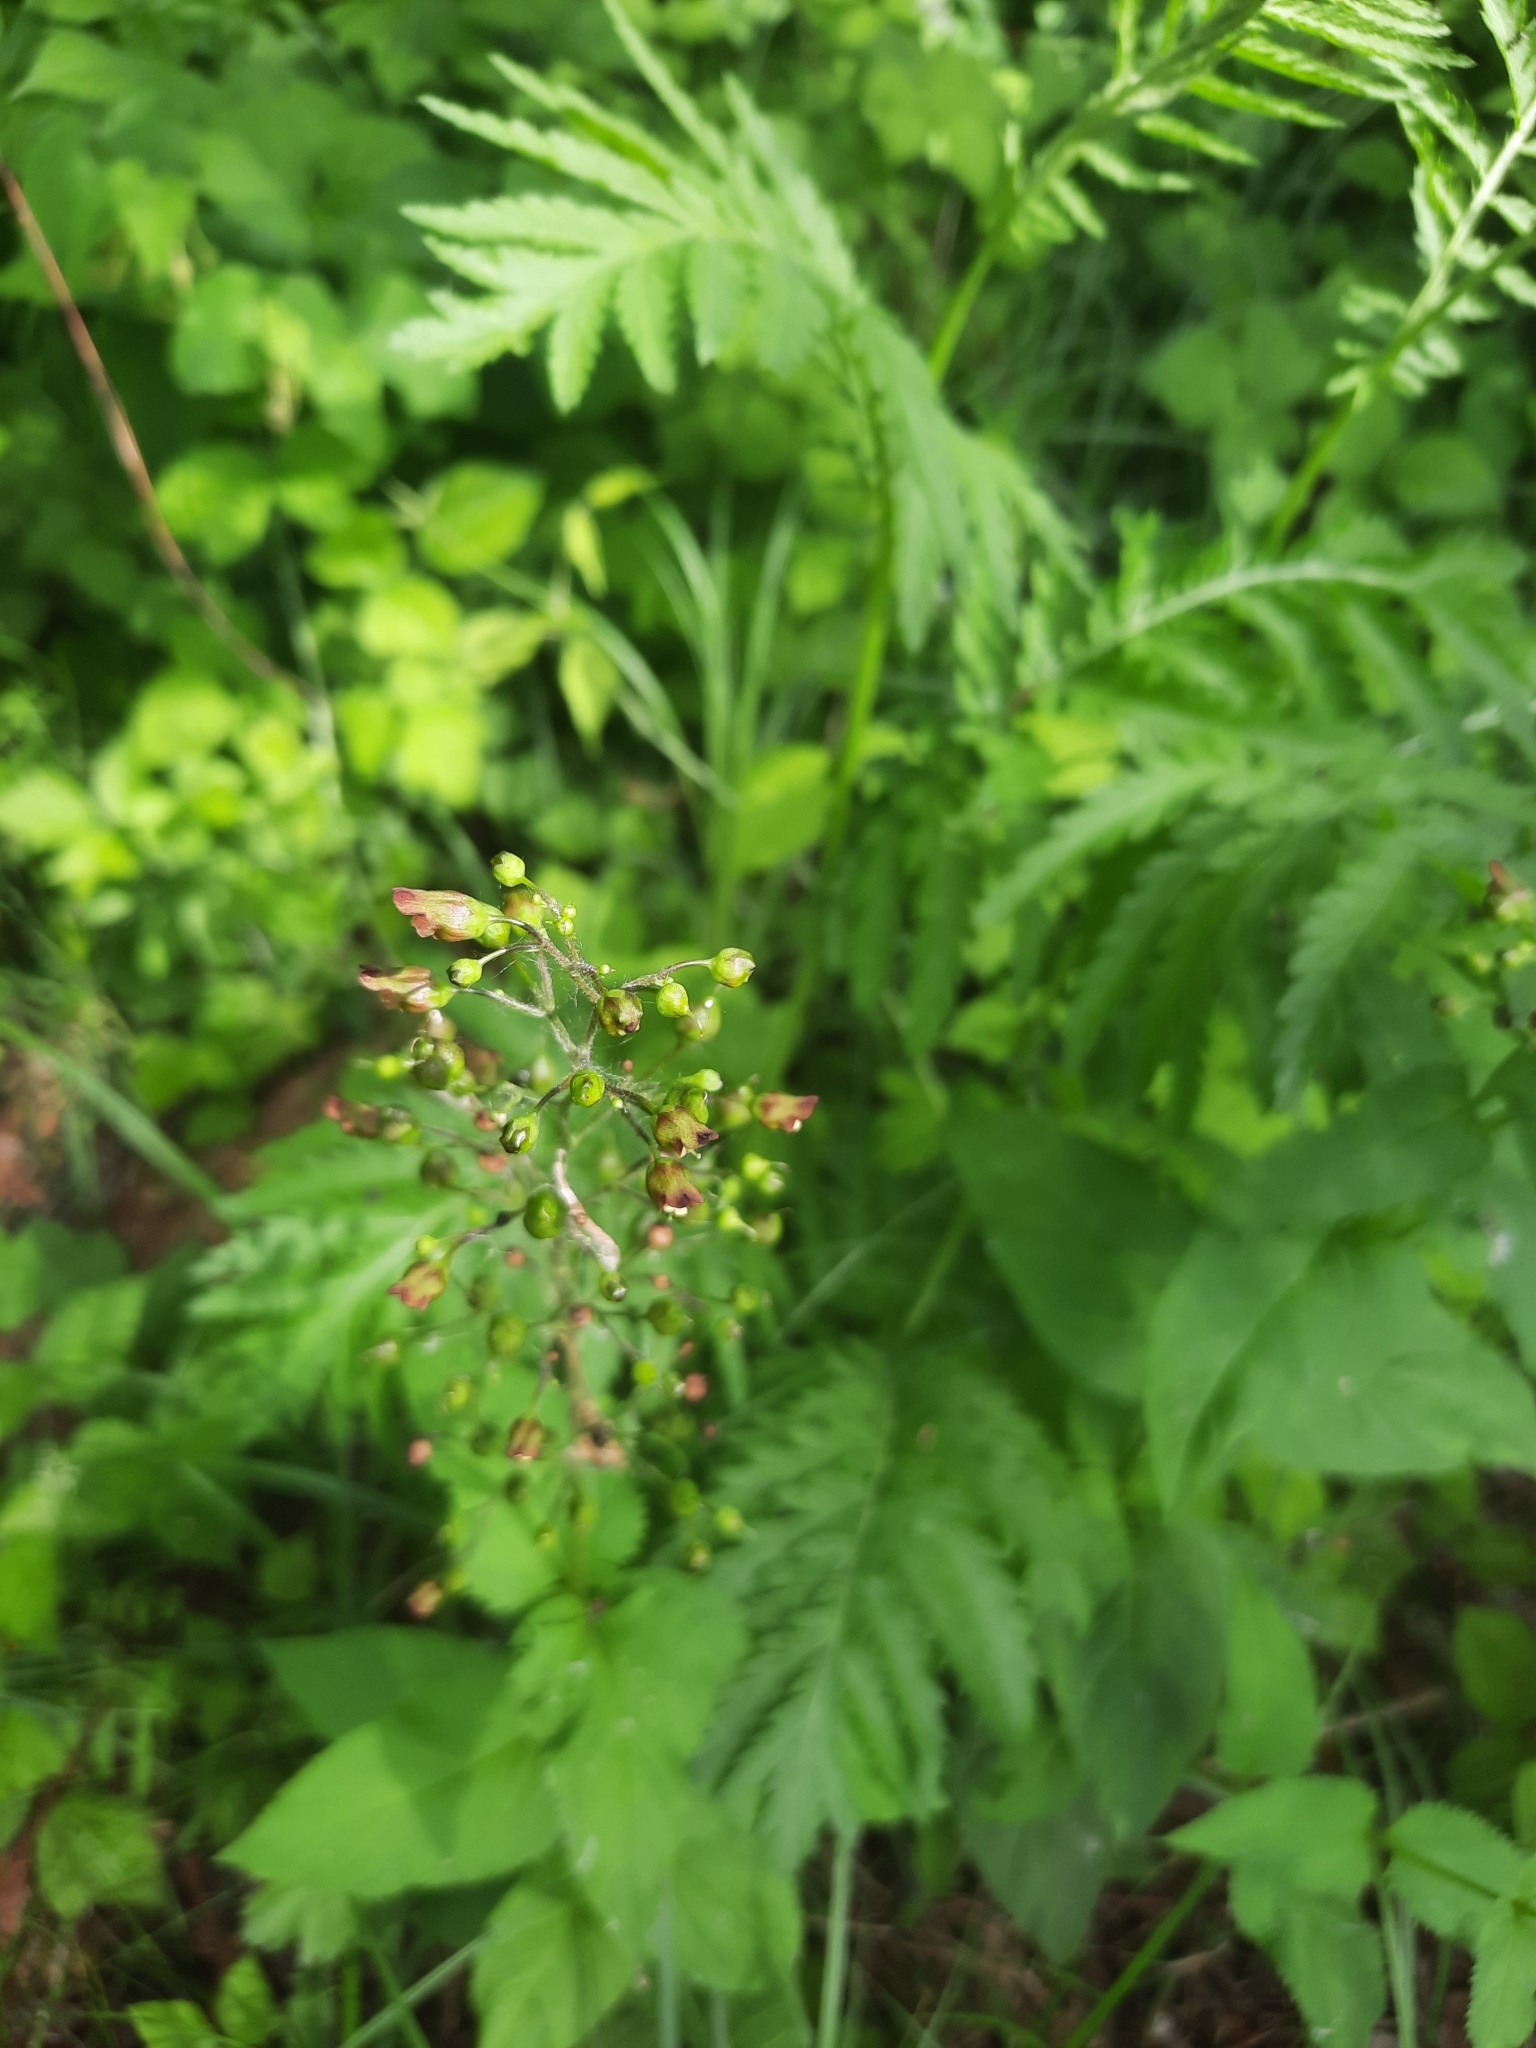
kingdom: Plantae
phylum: Tracheophyta
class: Magnoliopsida
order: Lamiales
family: Scrophulariaceae
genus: Scrophularia
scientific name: Scrophularia nodosa
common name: Common figwort
